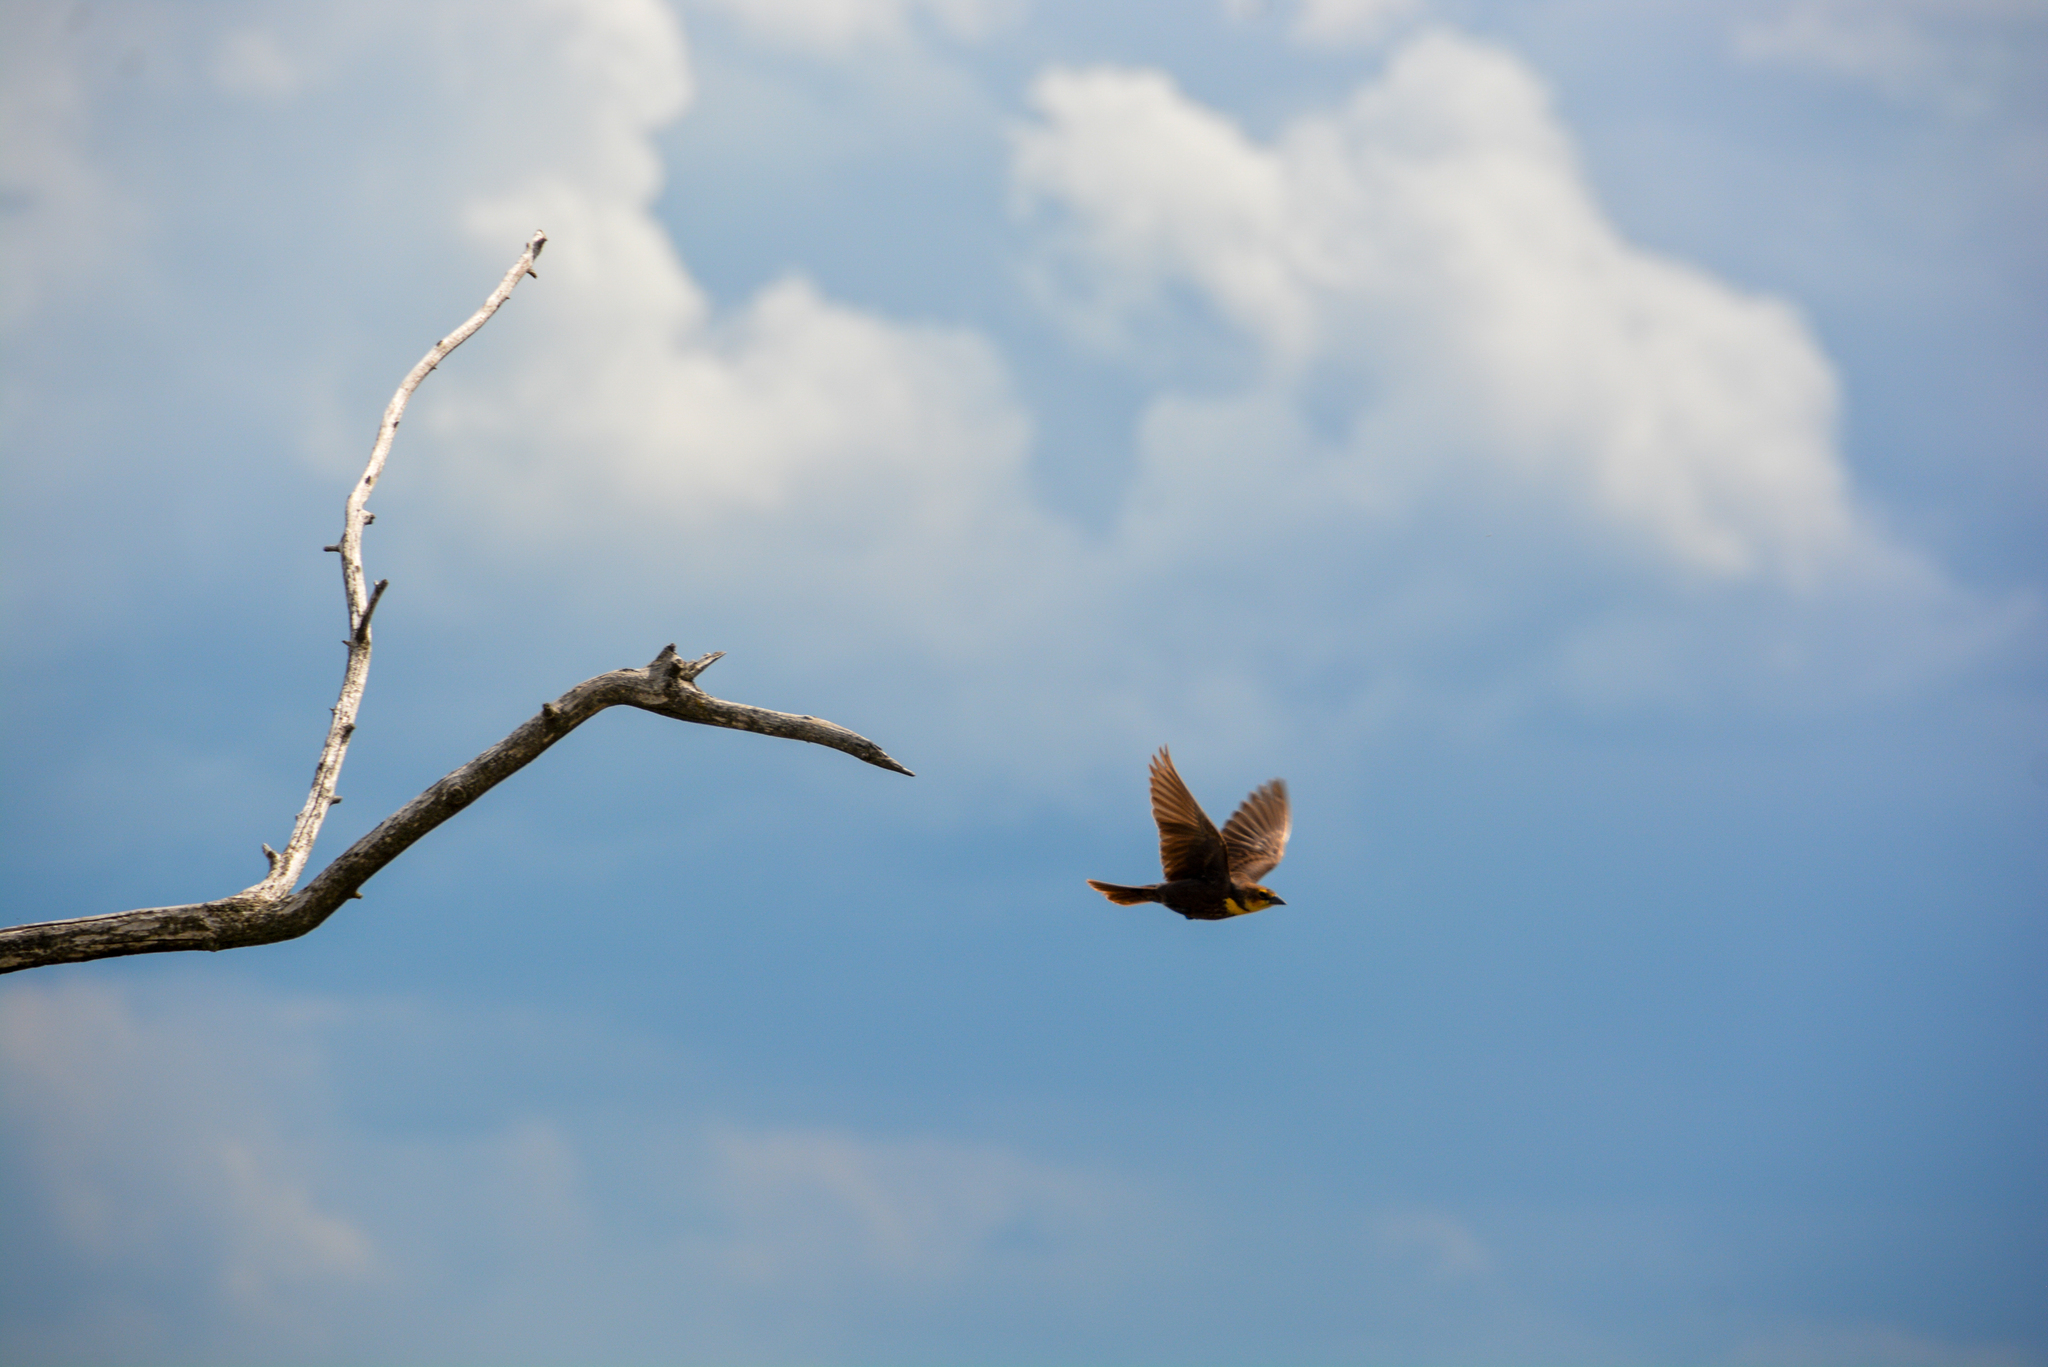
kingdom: Animalia
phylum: Chordata
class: Aves
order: Passeriformes
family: Icteridae
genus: Xanthocephalus
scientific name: Xanthocephalus xanthocephalus
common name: Yellow-headed blackbird
